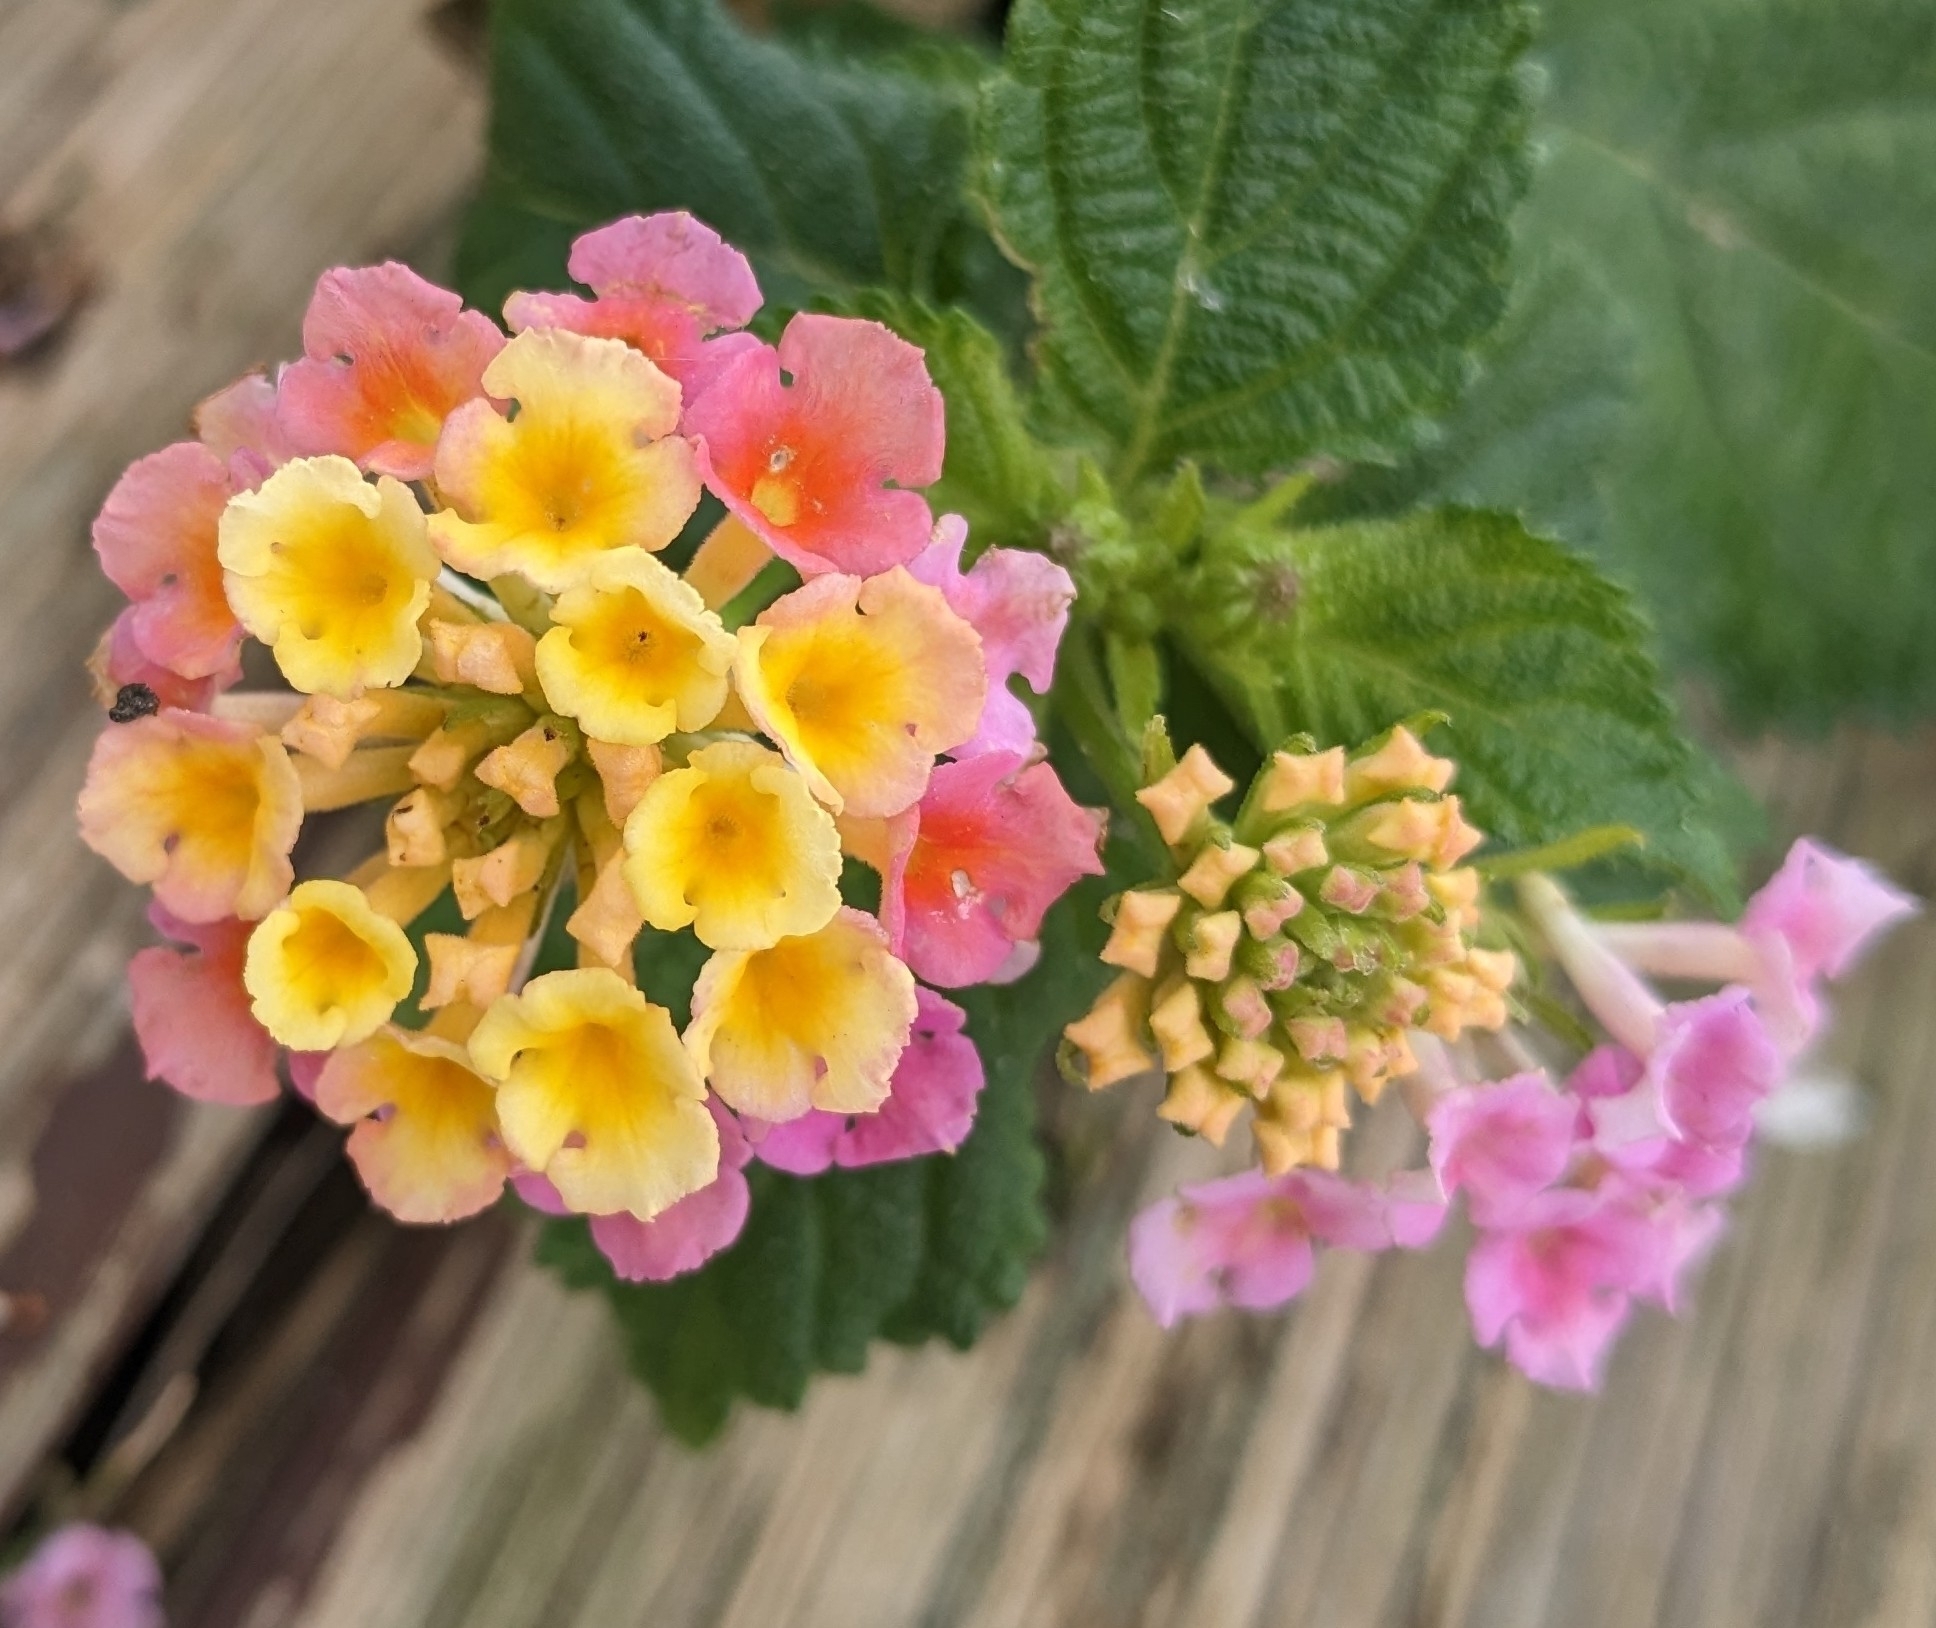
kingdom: Plantae
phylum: Tracheophyta
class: Magnoliopsida
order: Lamiales
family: Verbenaceae
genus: Lantana
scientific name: Lantana camara
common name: Lantana
